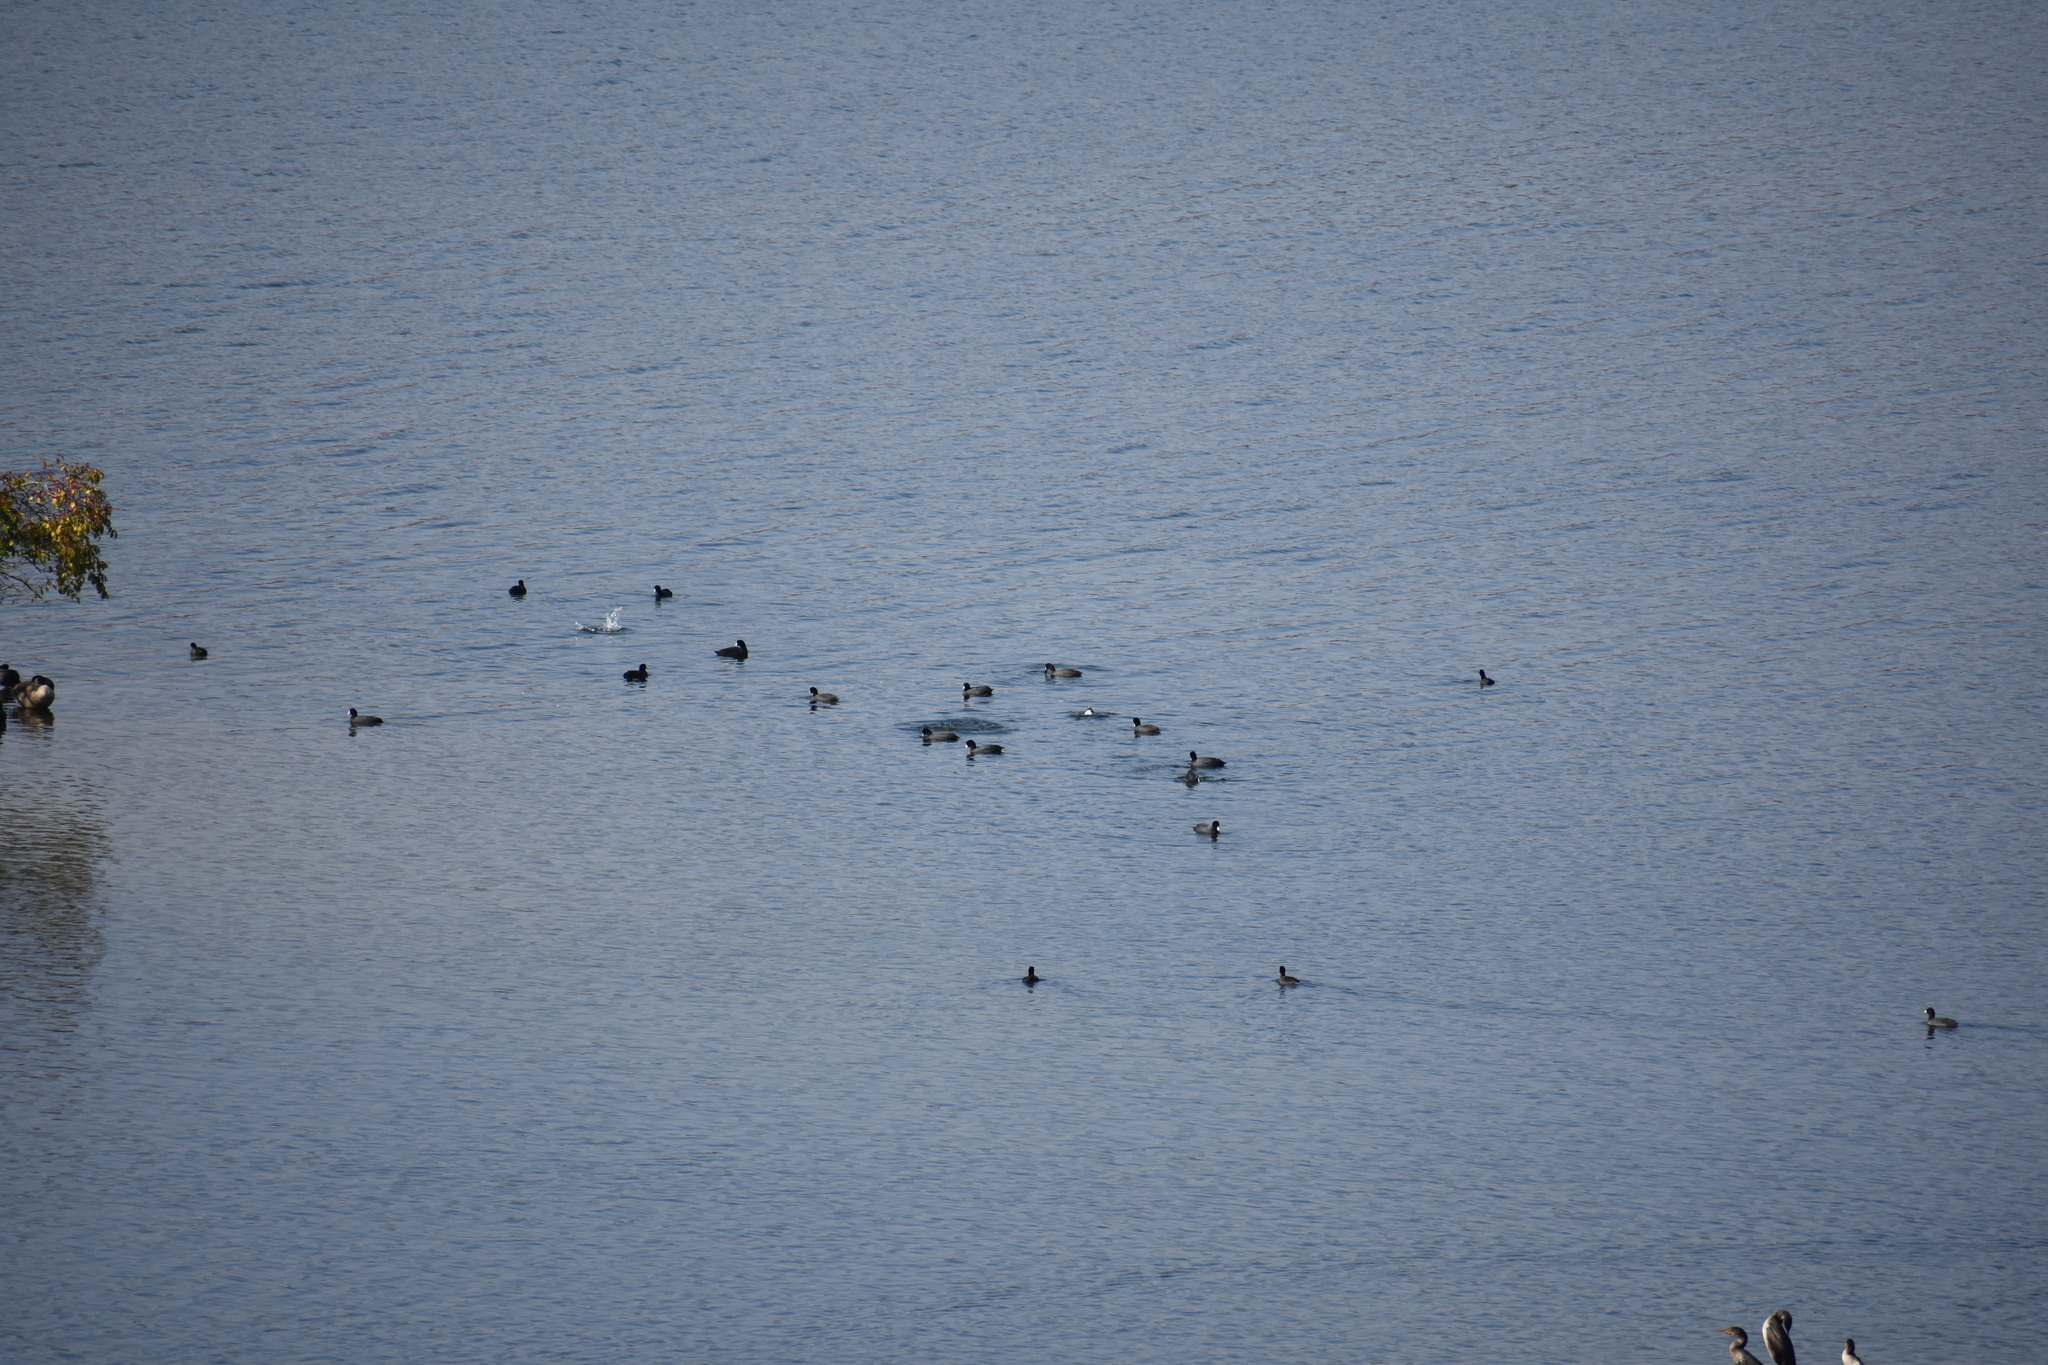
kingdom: Animalia
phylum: Chordata
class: Aves
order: Gruiformes
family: Rallidae
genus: Fulica
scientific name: Fulica americana
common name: American coot
